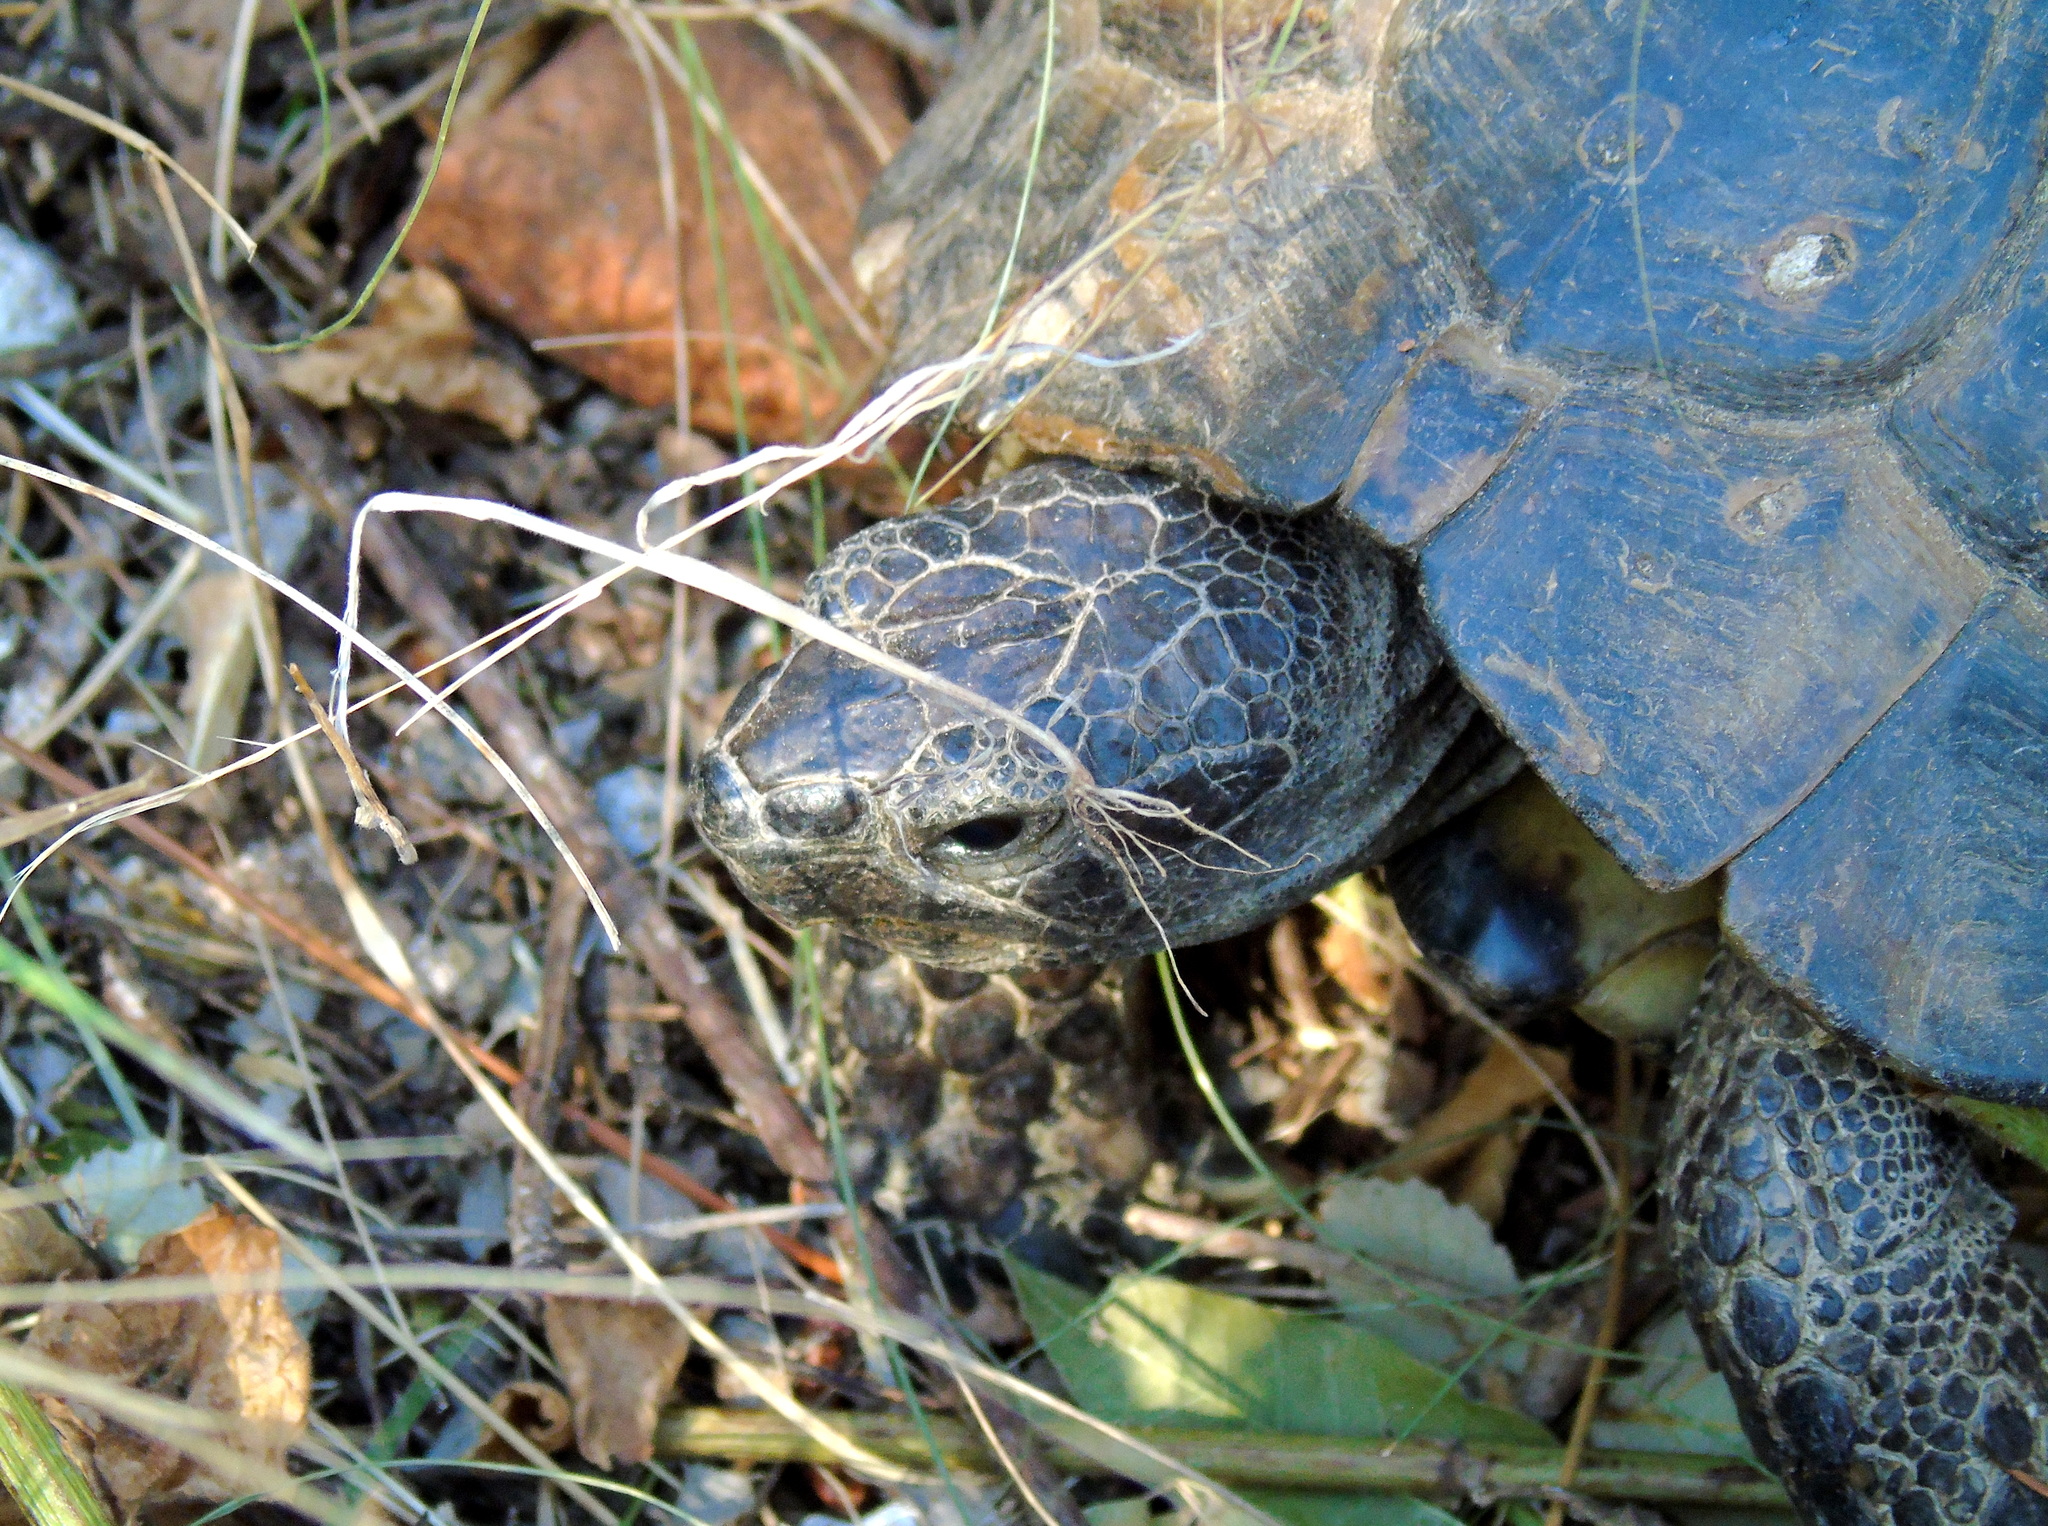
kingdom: Animalia
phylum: Chordata
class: Testudines
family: Testudinidae
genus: Testudo
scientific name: Testudo graeca
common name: Common tortoise
